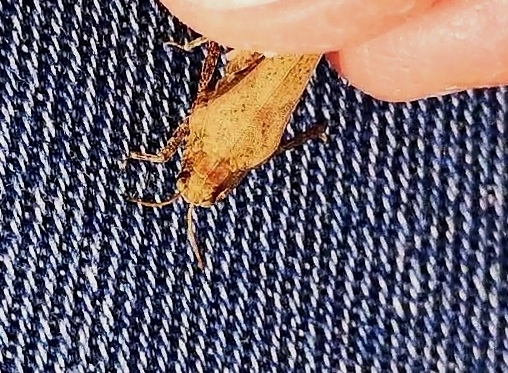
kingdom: Animalia
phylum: Arthropoda
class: Insecta
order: Orthoptera
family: Tetrigidae
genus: Tetrix
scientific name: Tetrix subulata
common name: Slender ground-hopper
